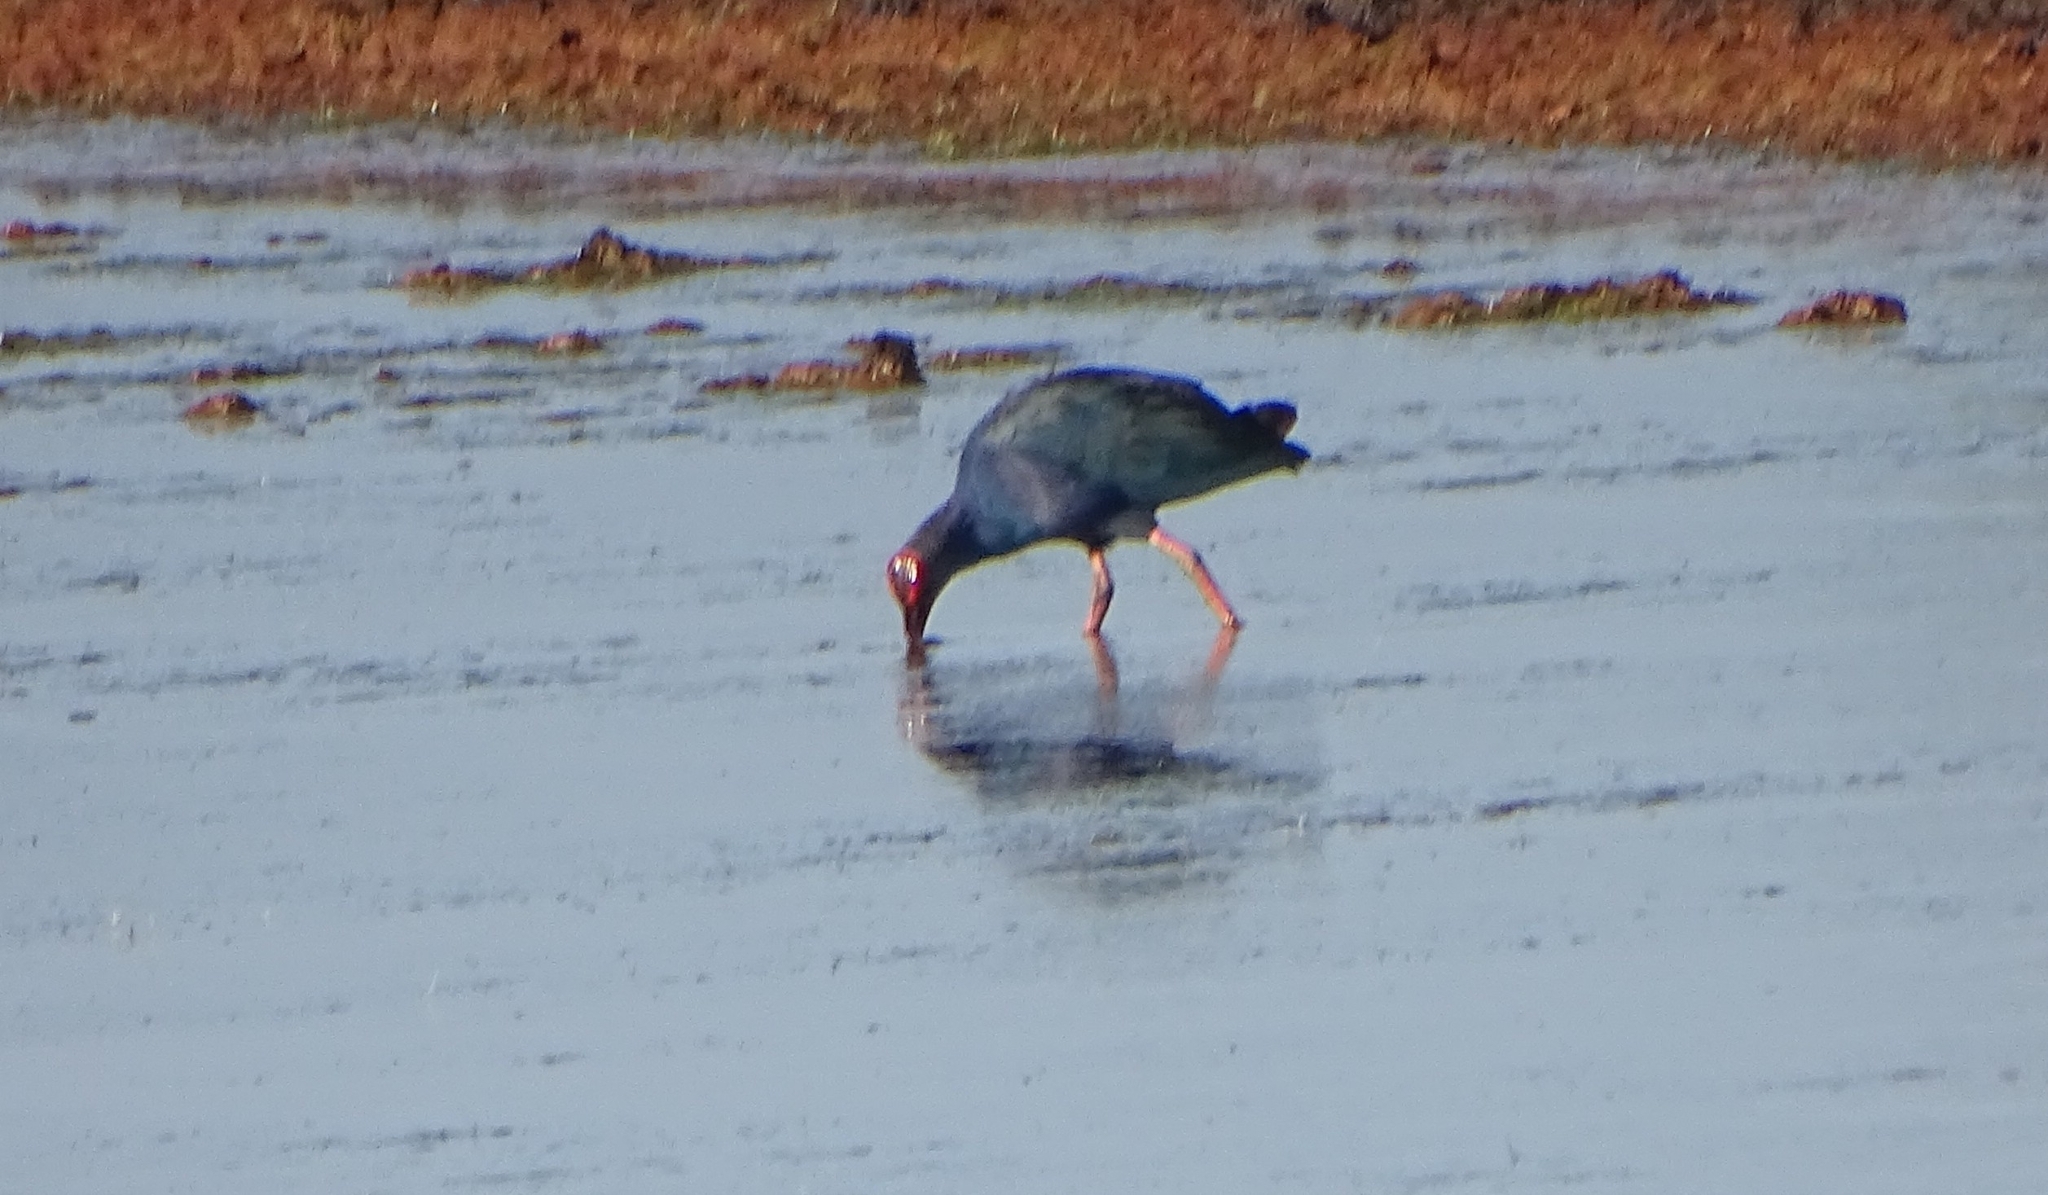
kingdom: Animalia
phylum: Chordata
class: Aves
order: Gruiformes
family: Rallidae
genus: Porphyrio
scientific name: Porphyrio porphyrio
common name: Purple swamphen
